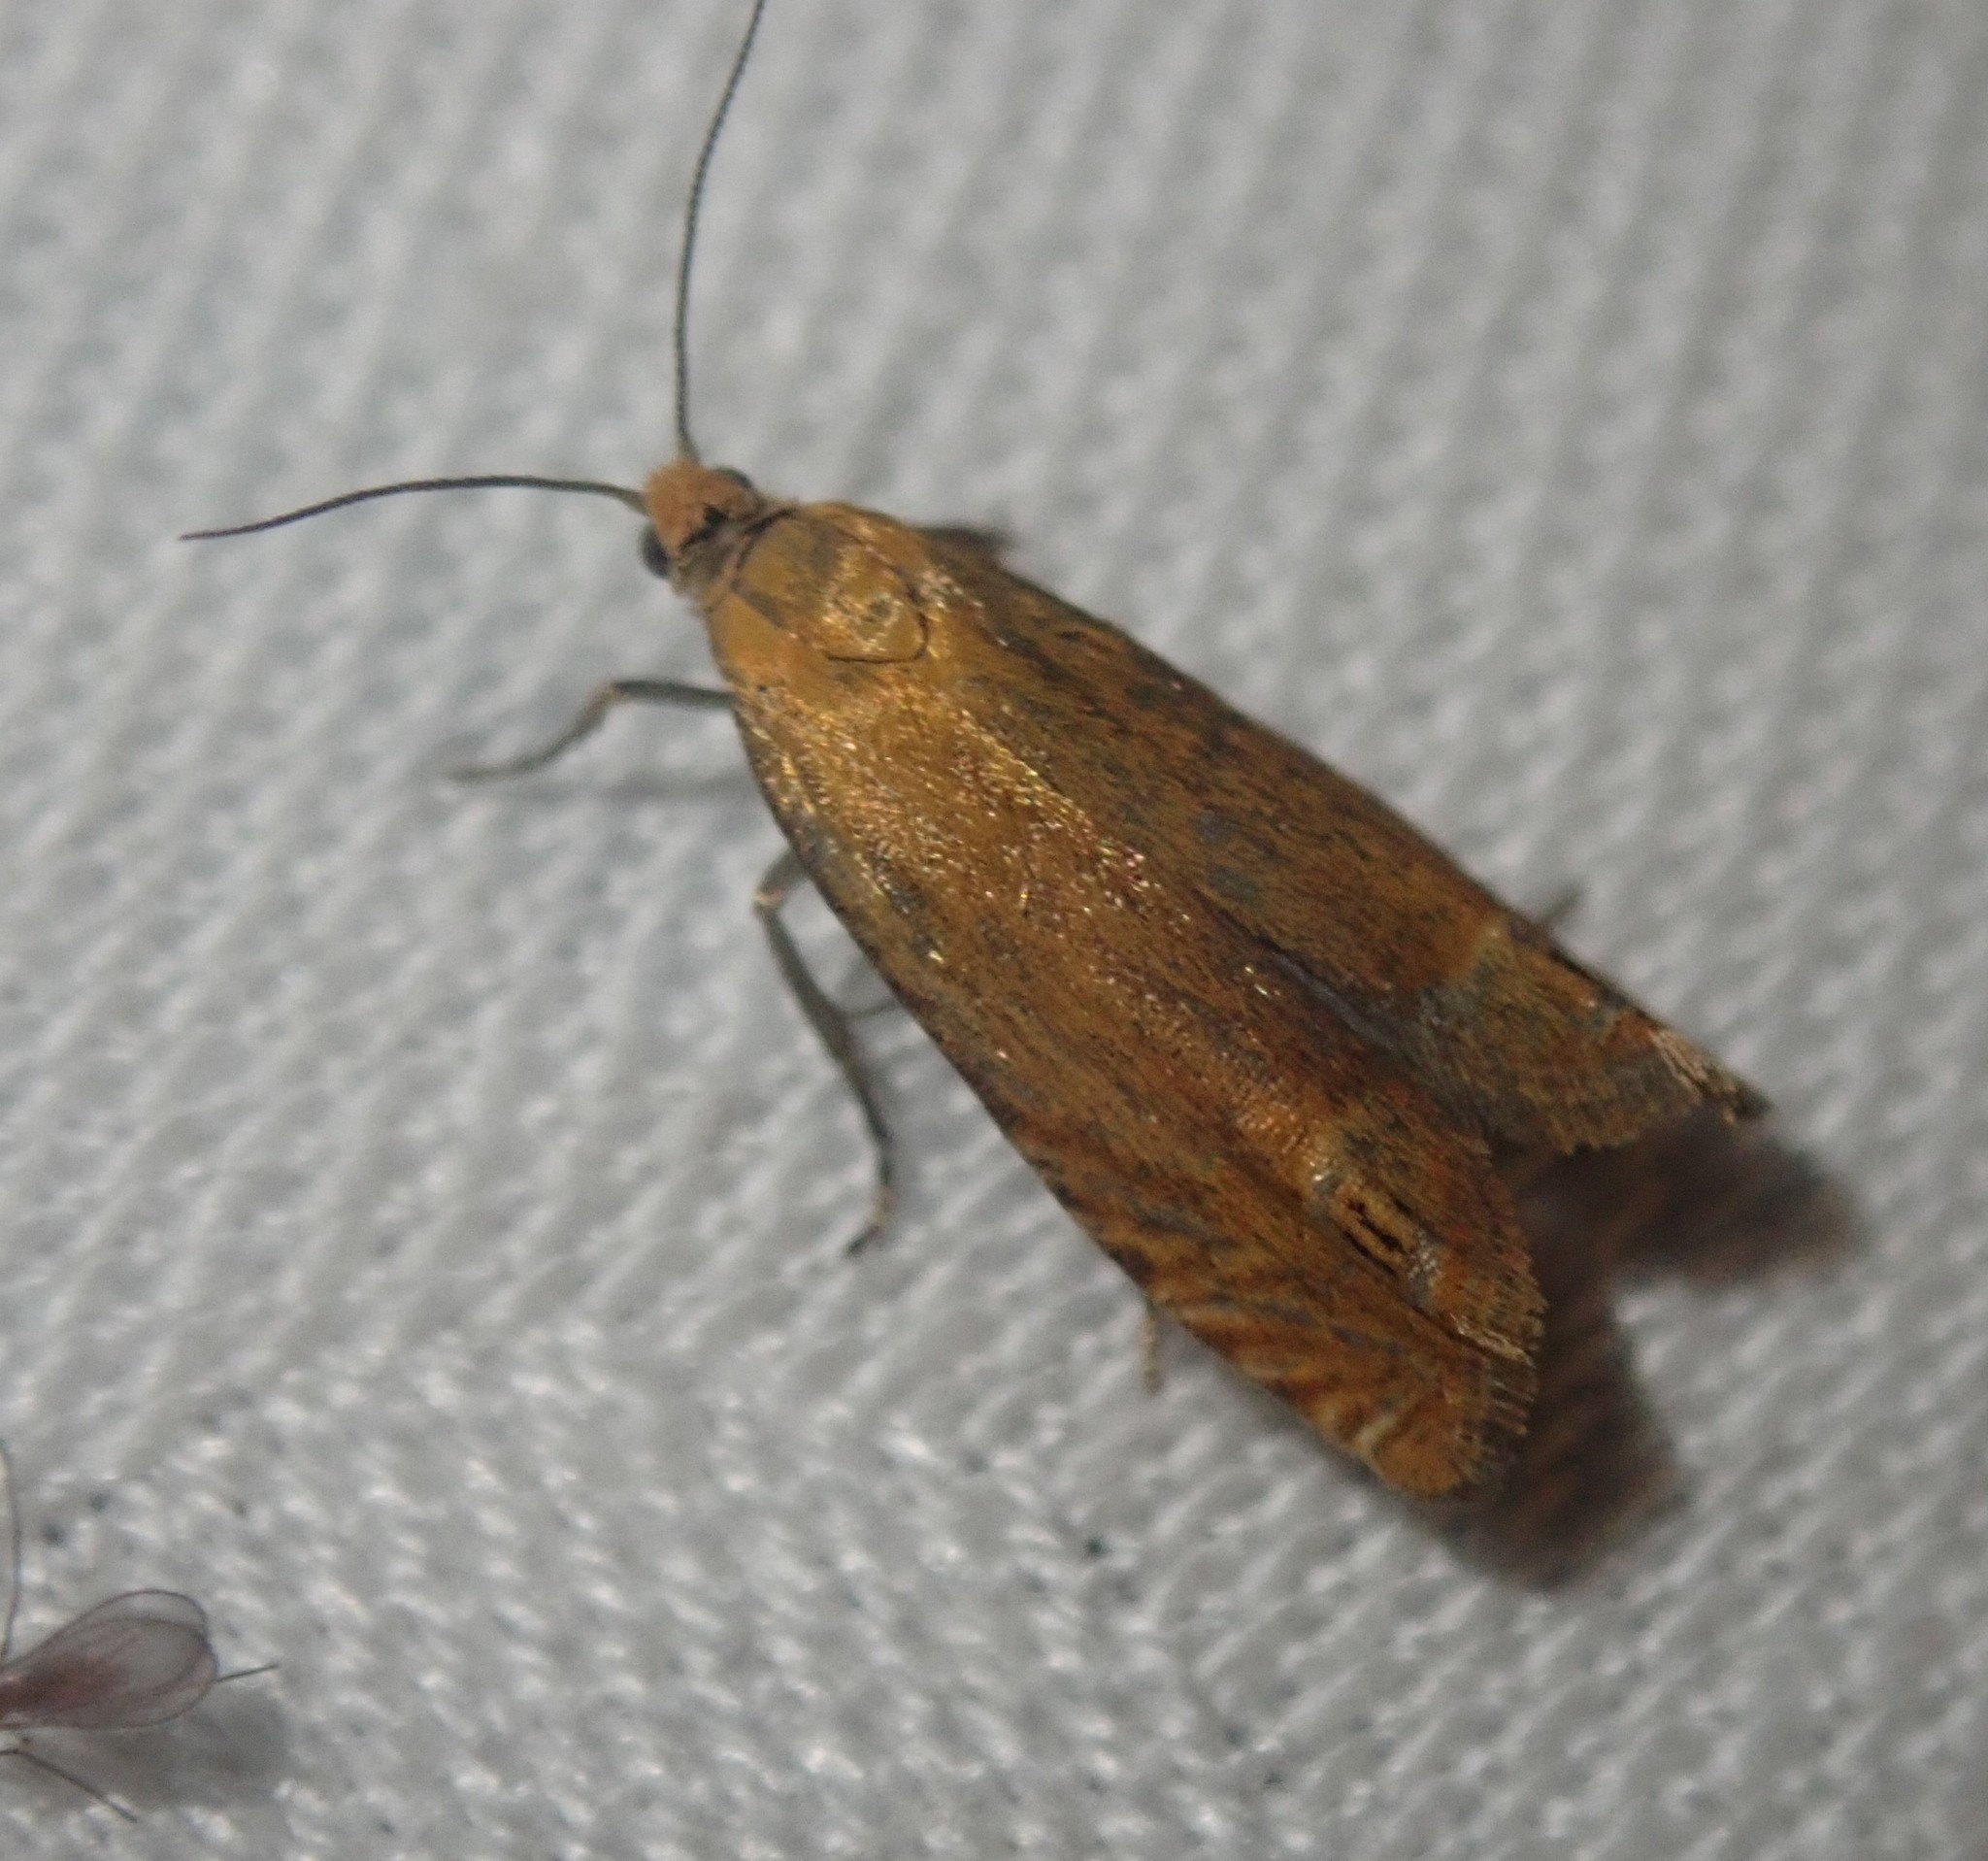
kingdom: Animalia
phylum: Arthropoda
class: Insecta
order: Lepidoptera
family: Tortricidae
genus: Lathronympha
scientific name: Lathronympha strigana
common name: Red piercer
